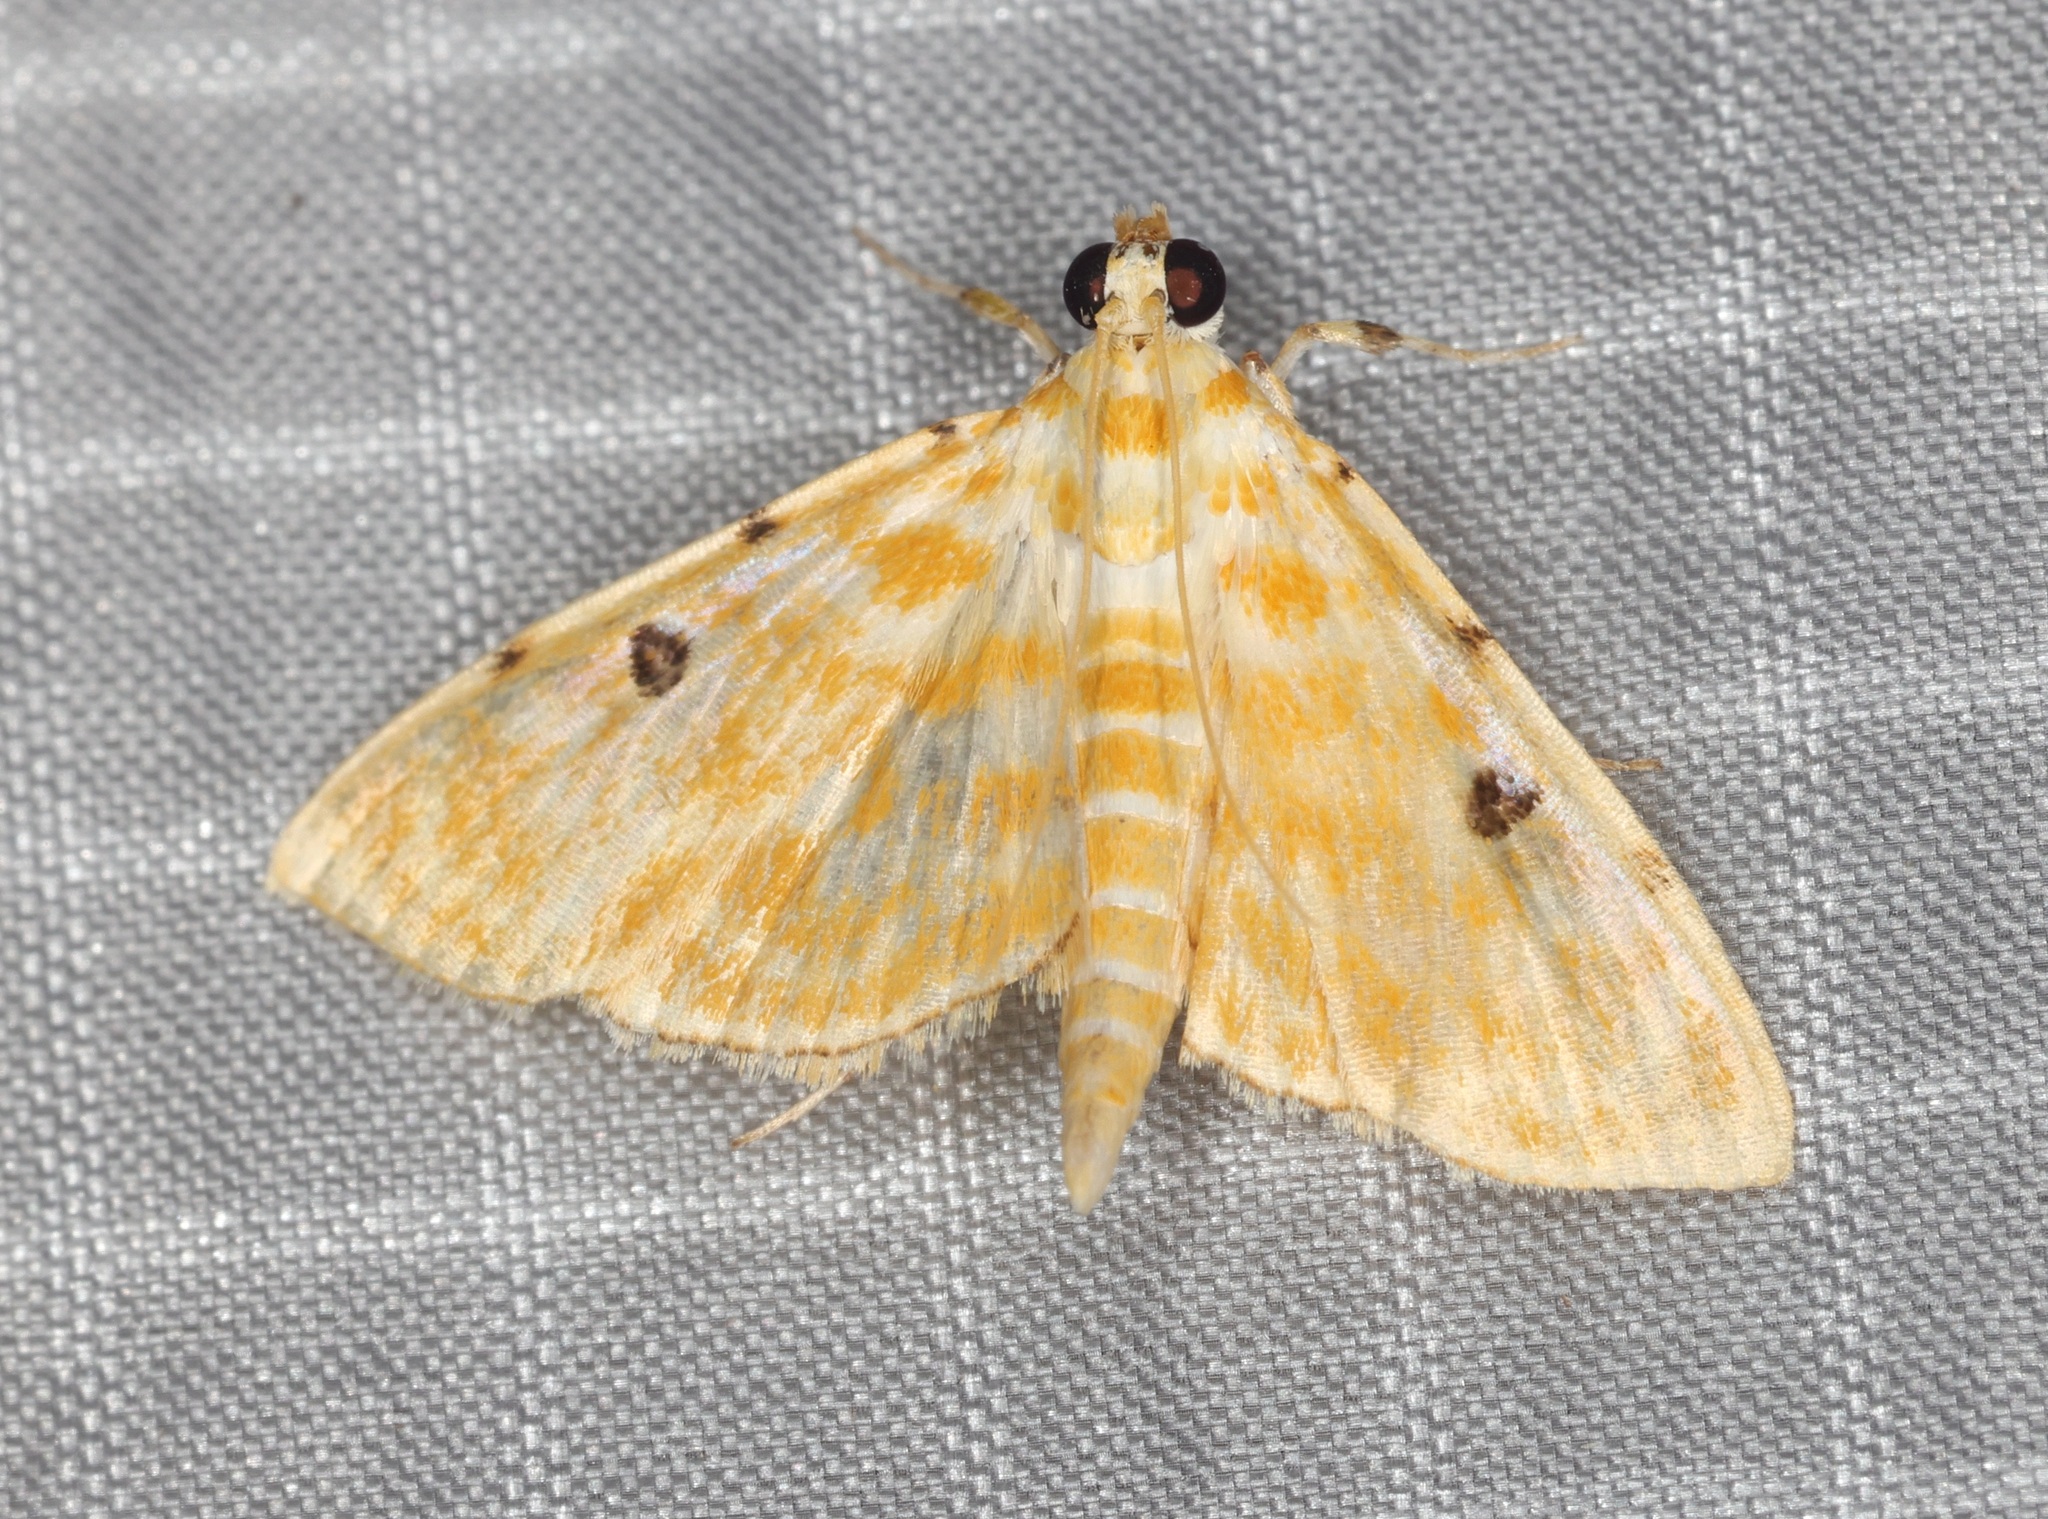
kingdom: Animalia
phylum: Arthropoda
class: Insecta
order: Lepidoptera
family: Crambidae
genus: Notarcha
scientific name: Notarcha aurolinealis
